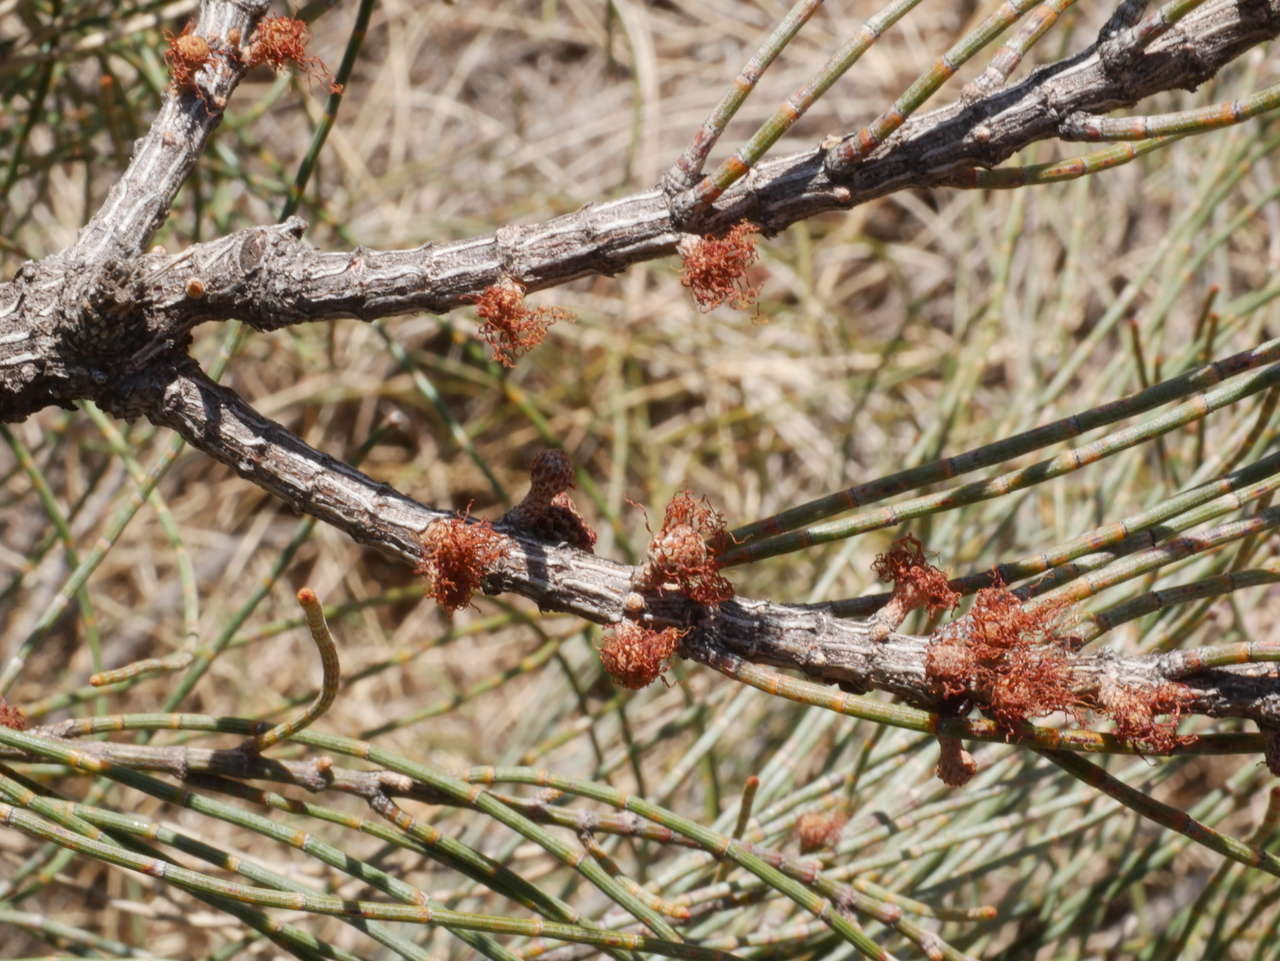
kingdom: Plantae
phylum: Tracheophyta
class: Magnoliopsida
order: Fagales
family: Casuarinaceae
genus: Allocasuarina
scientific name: Allocasuarina luehmannii
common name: Bull-oak
